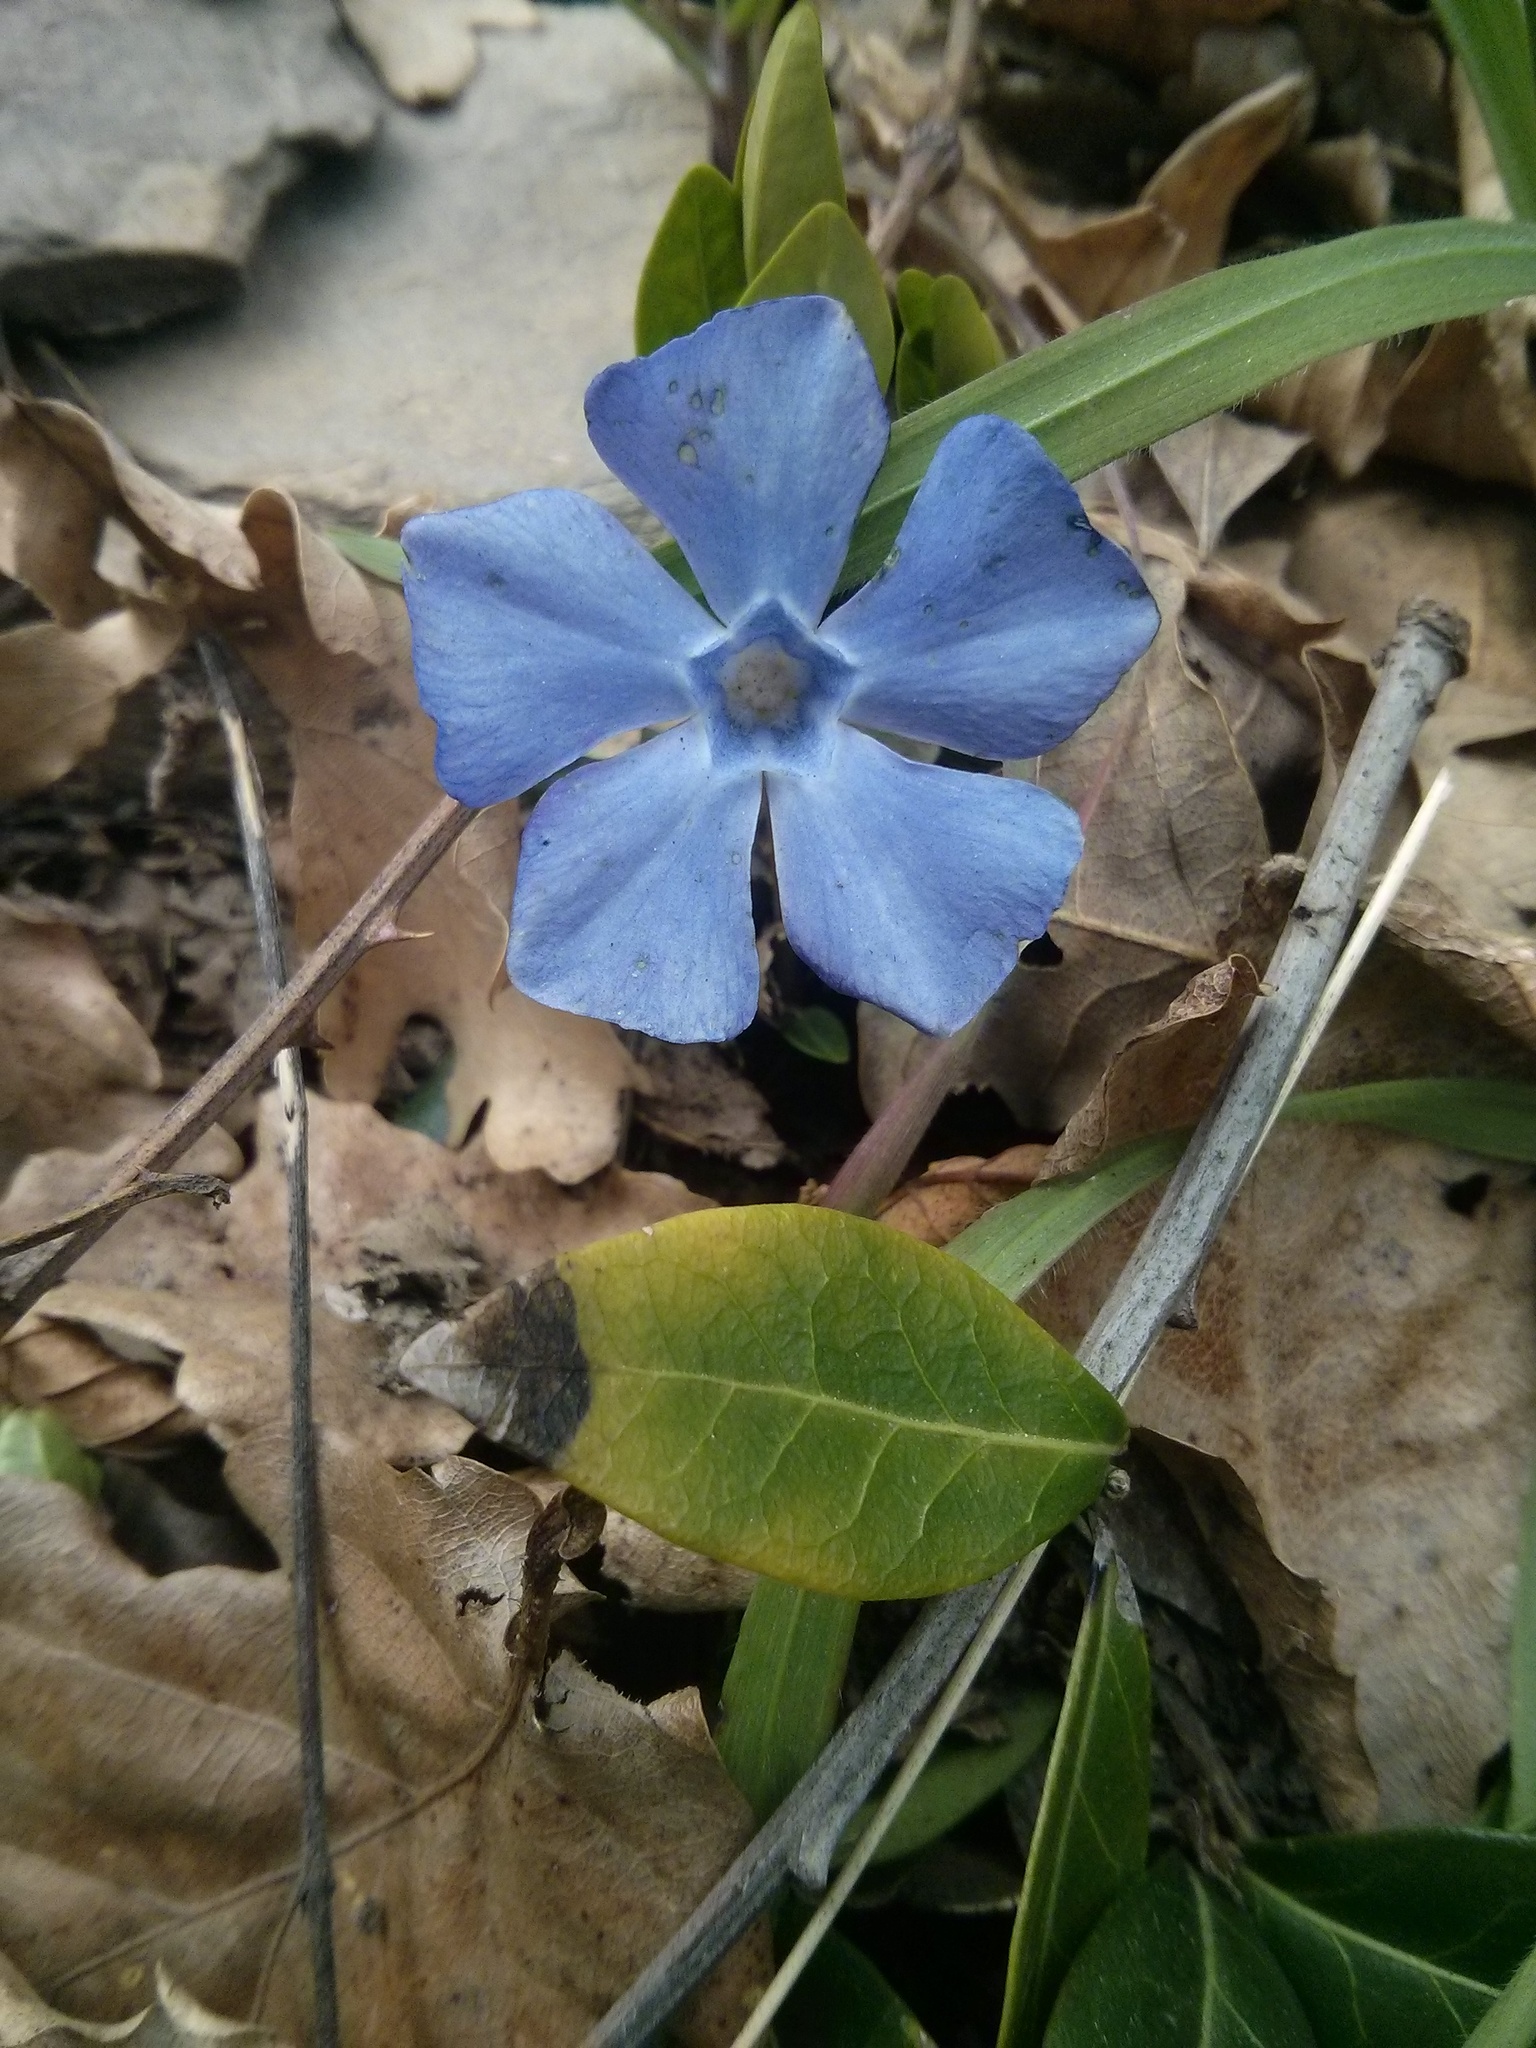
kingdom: Plantae
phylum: Tracheophyta
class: Magnoliopsida
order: Gentianales
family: Apocynaceae
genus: Vinca
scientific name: Vinca minor
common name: Lesser periwinkle
